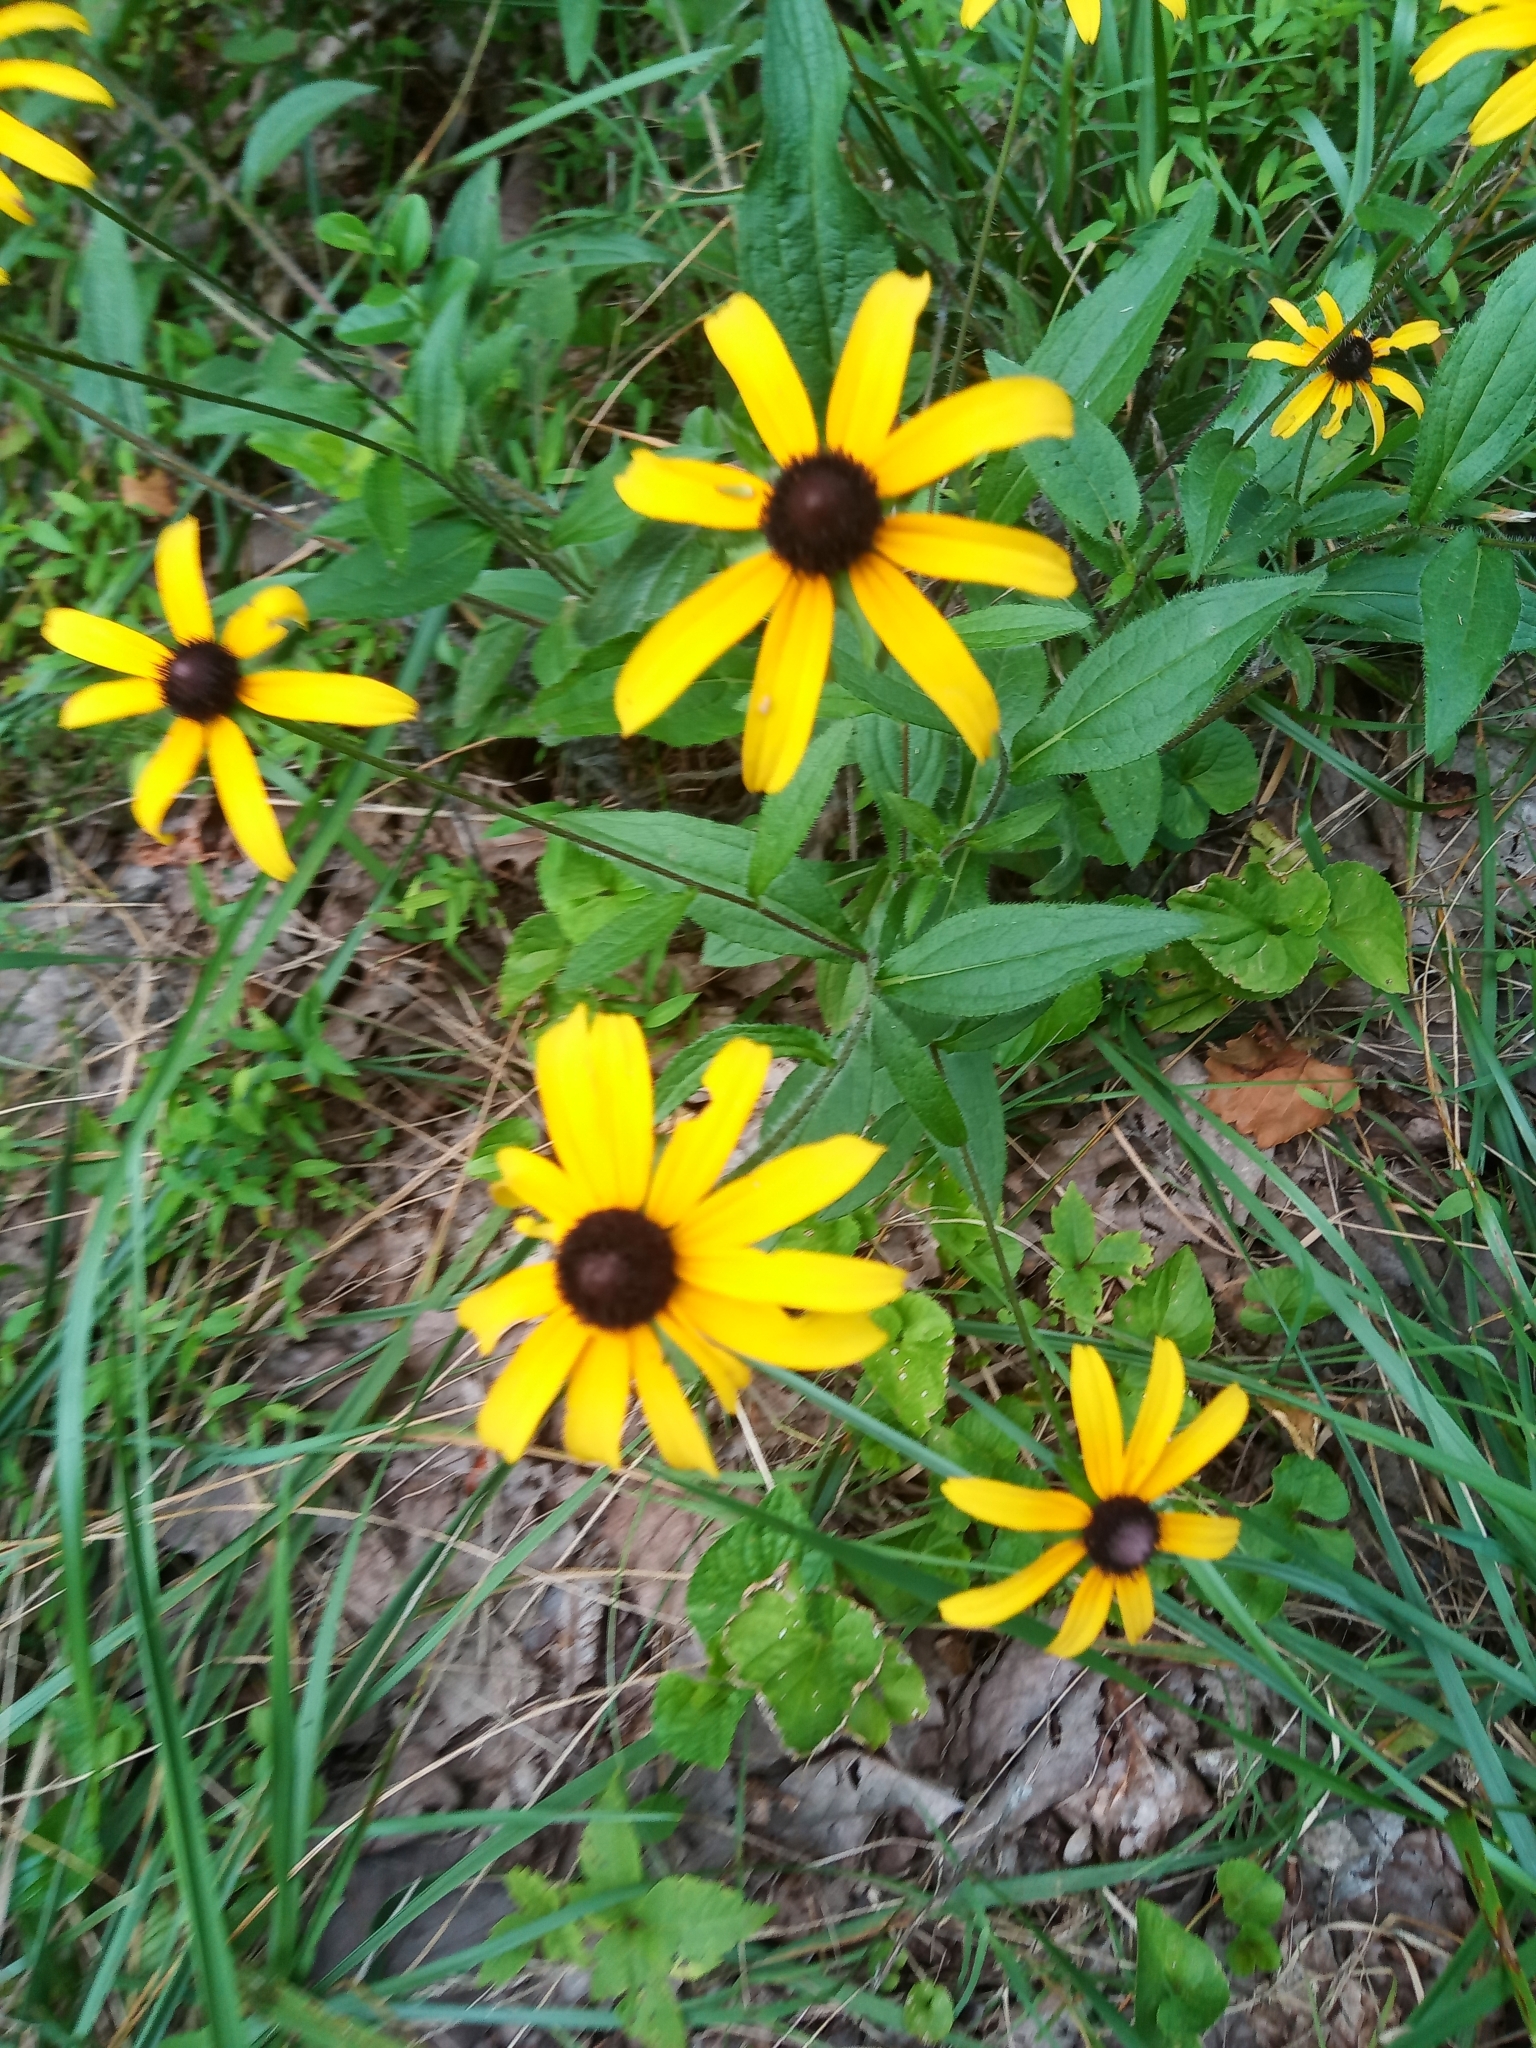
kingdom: Plantae
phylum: Tracheophyta
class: Magnoliopsida
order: Asterales
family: Asteraceae
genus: Rudbeckia
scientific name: Rudbeckia hirta
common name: Black-eyed-susan
